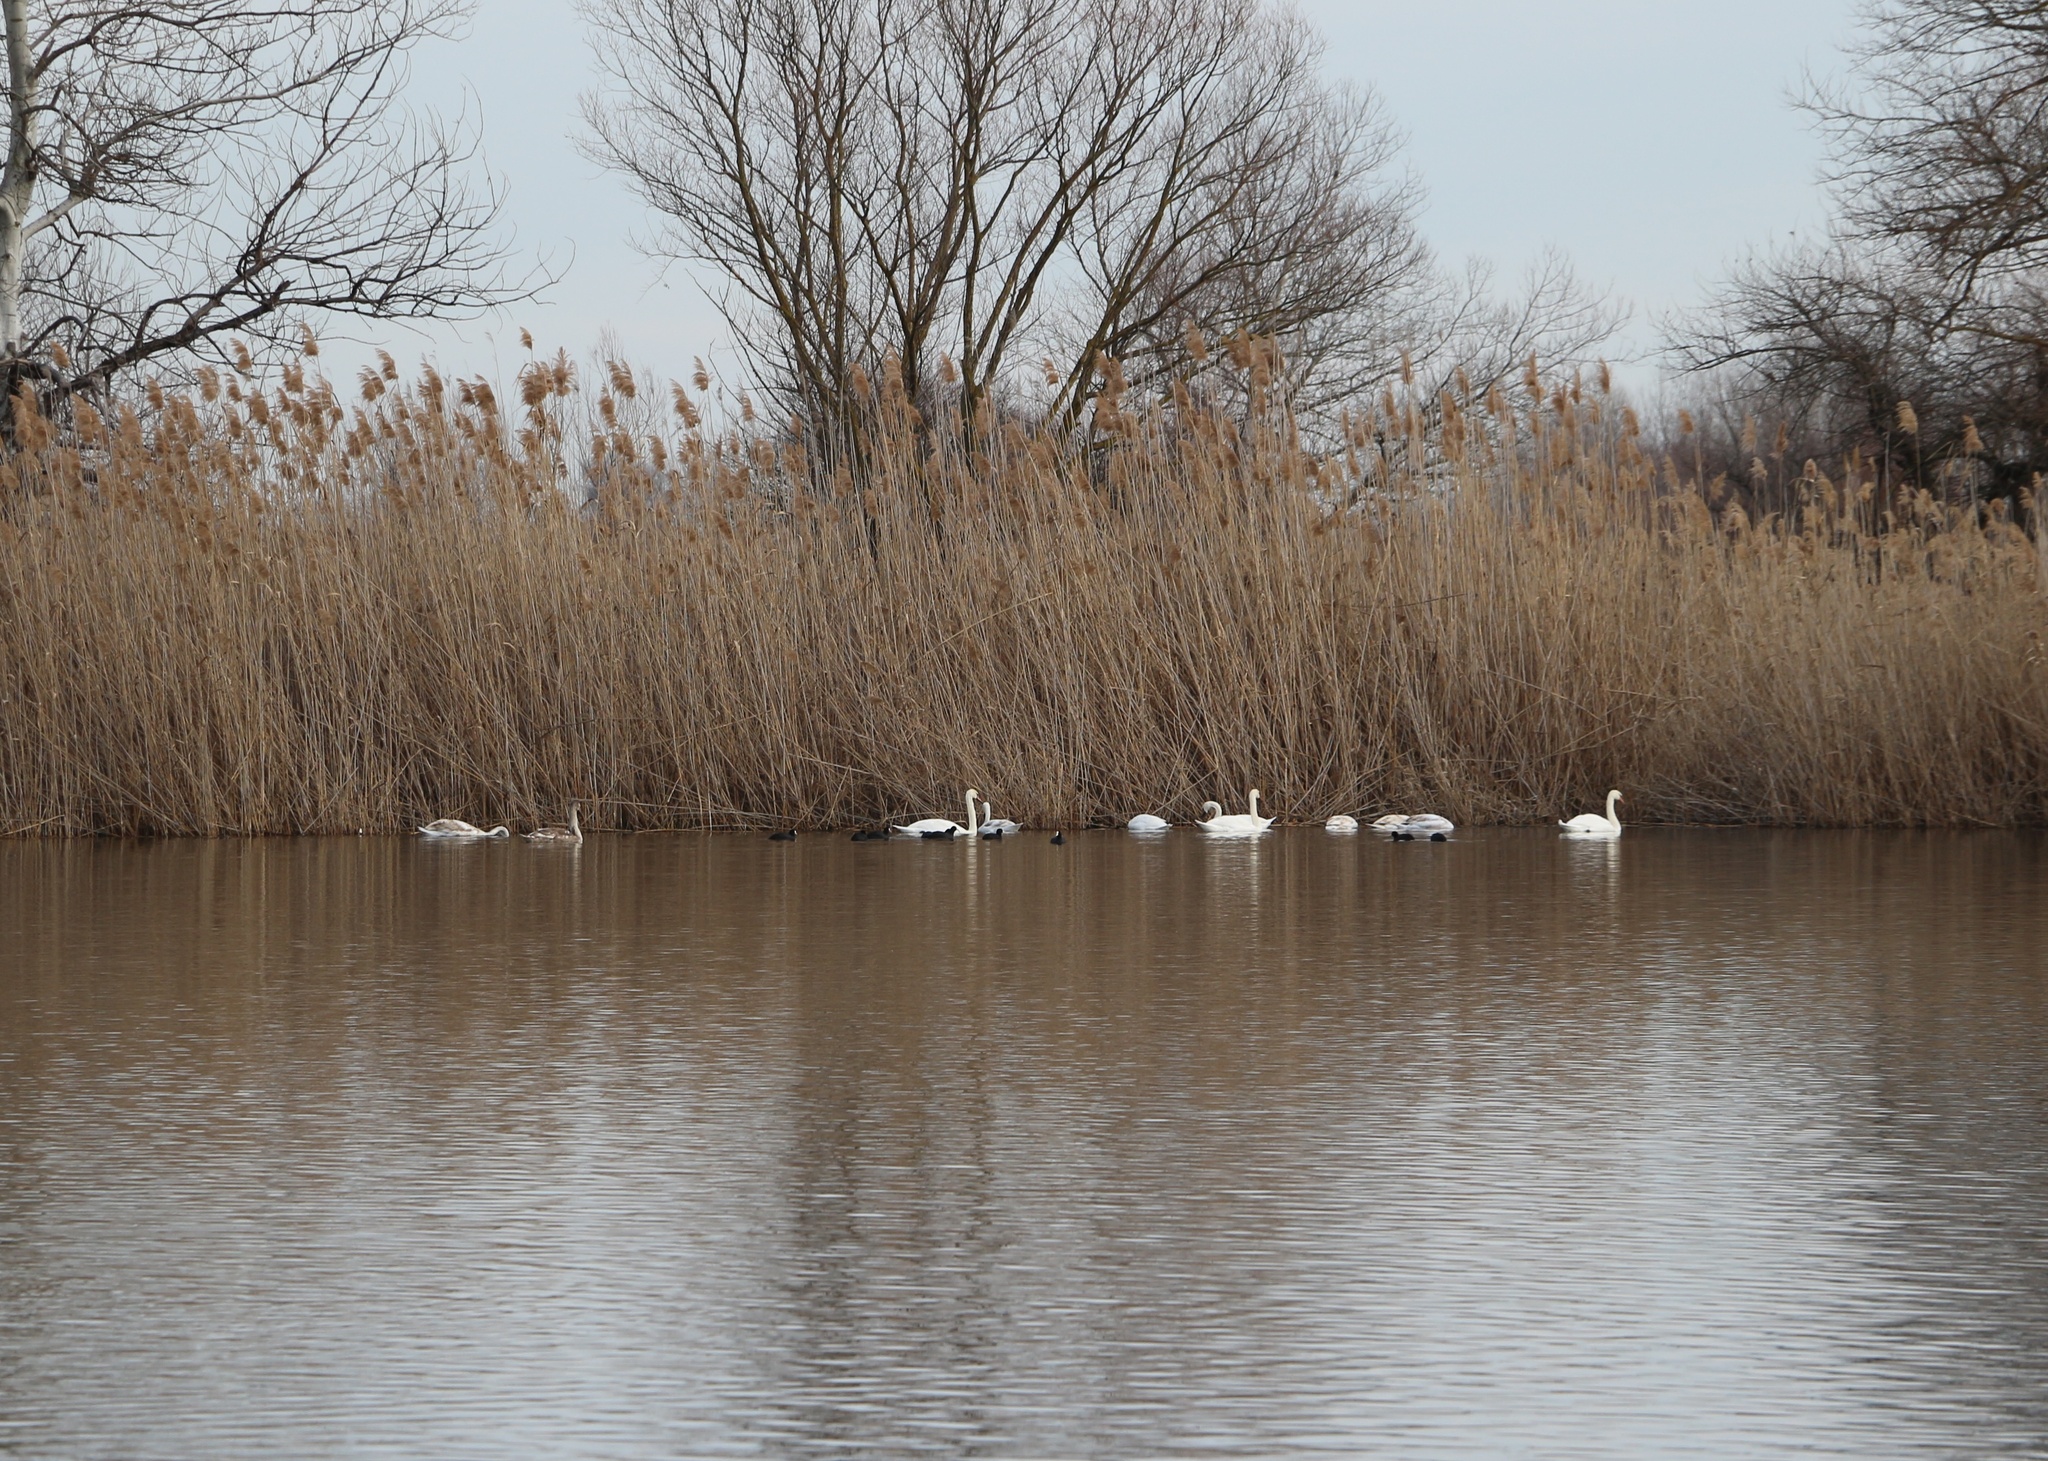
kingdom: Animalia
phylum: Chordata
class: Aves
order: Anseriformes
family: Anatidae
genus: Cygnus
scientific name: Cygnus olor
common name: Mute swan
